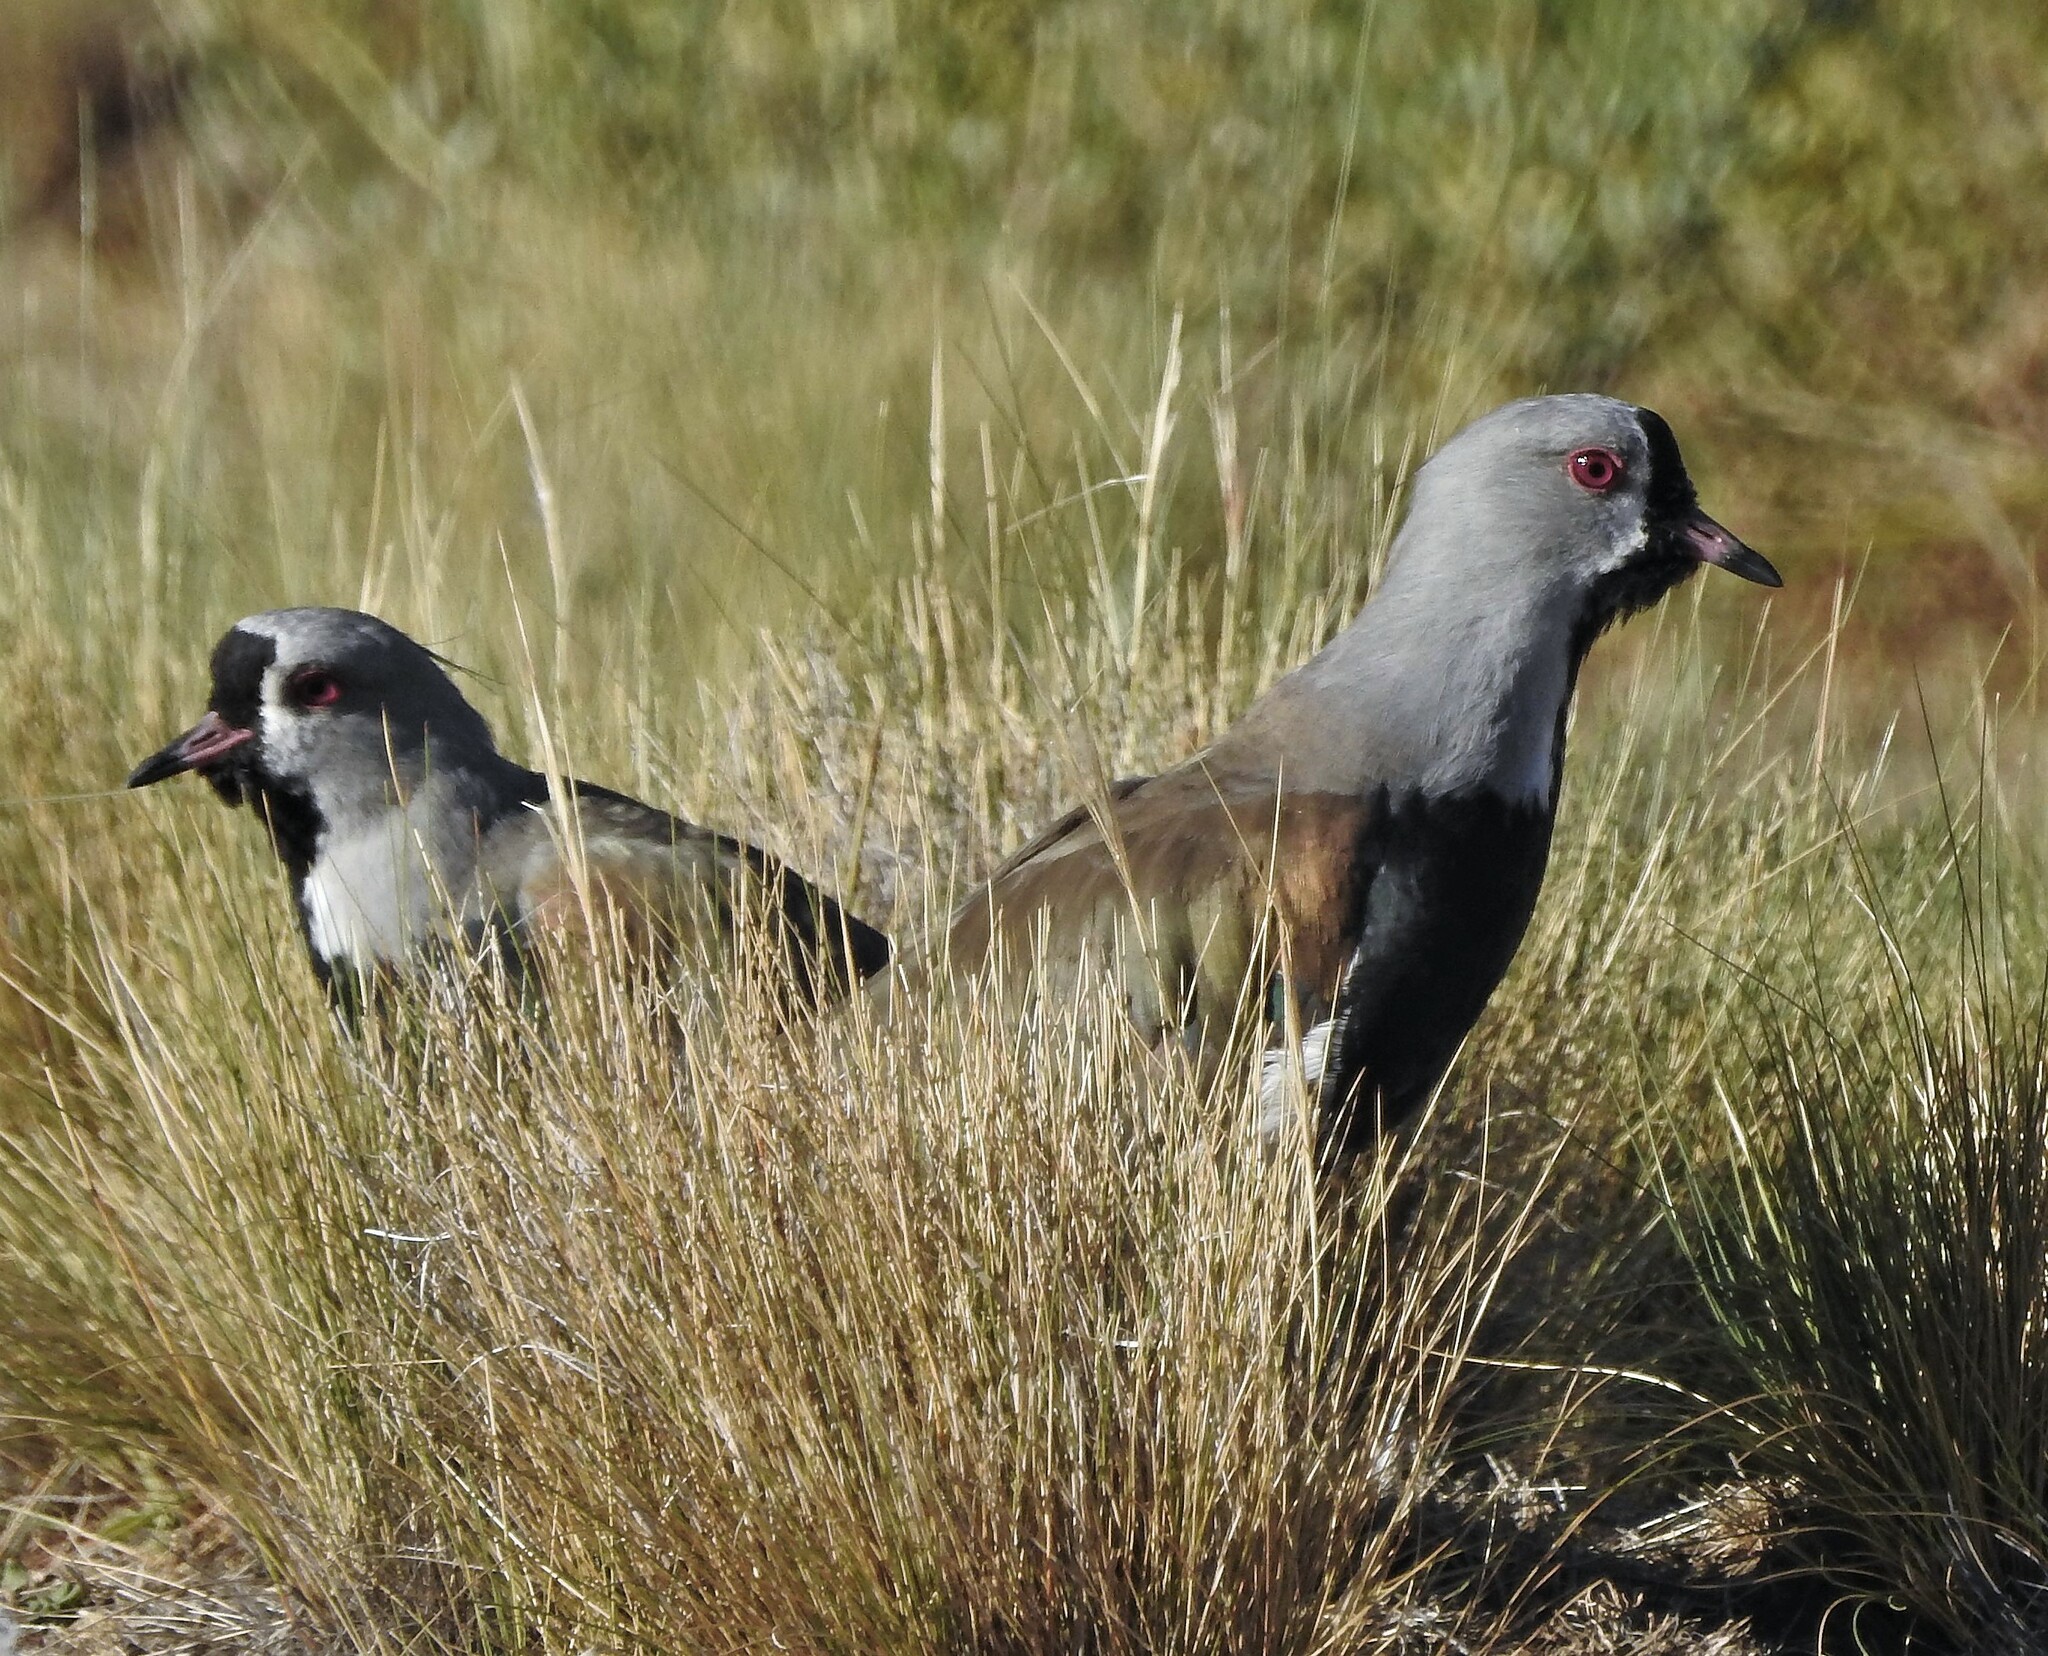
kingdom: Animalia
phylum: Chordata
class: Aves
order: Charadriiformes
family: Charadriidae
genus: Vanellus
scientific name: Vanellus chilensis
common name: Southern lapwing
